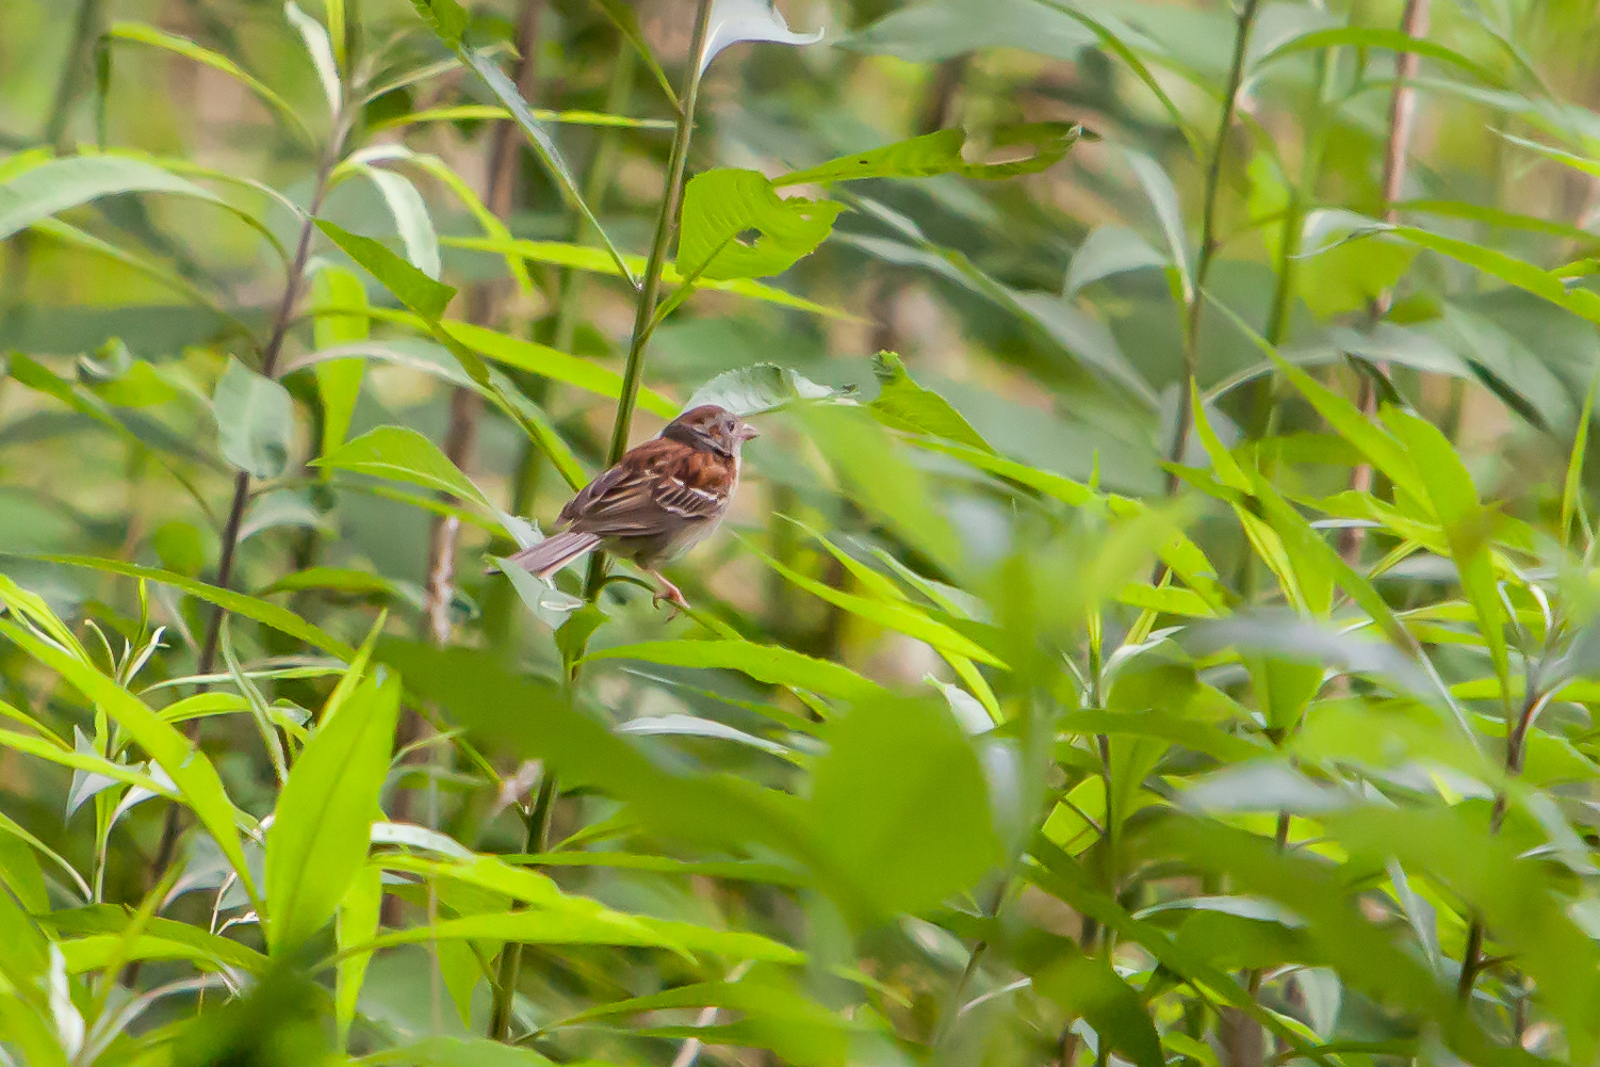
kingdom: Animalia
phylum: Chordata
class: Aves
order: Passeriformes
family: Passerellidae
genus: Spizella
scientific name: Spizella pusilla
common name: Field sparrow
